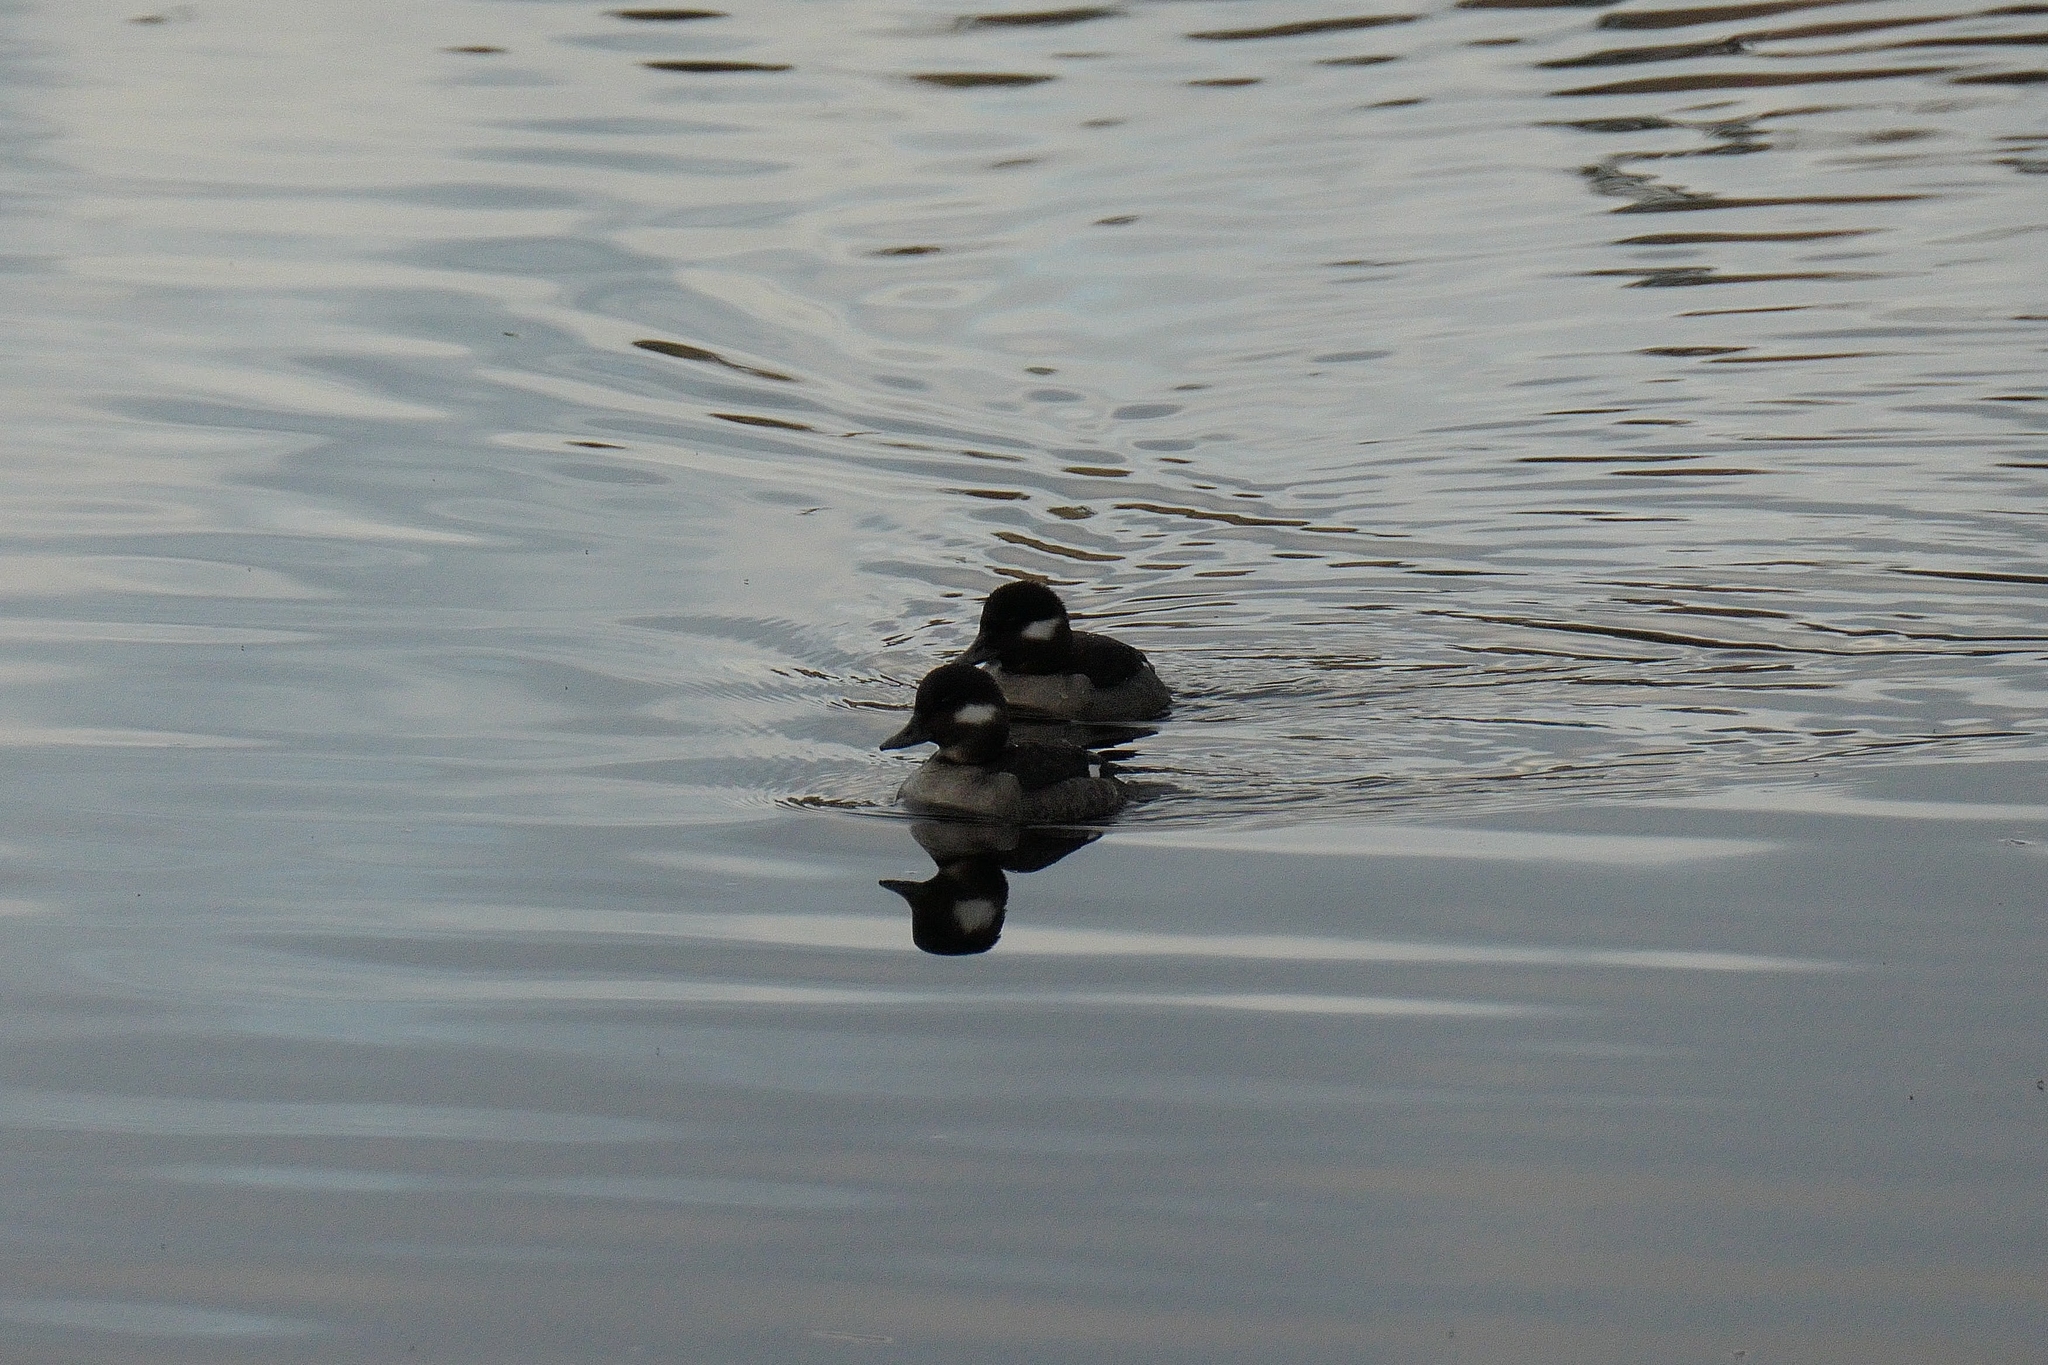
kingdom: Animalia
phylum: Chordata
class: Aves
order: Anseriformes
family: Anatidae
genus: Bucephala
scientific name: Bucephala albeola
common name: Bufflehead
